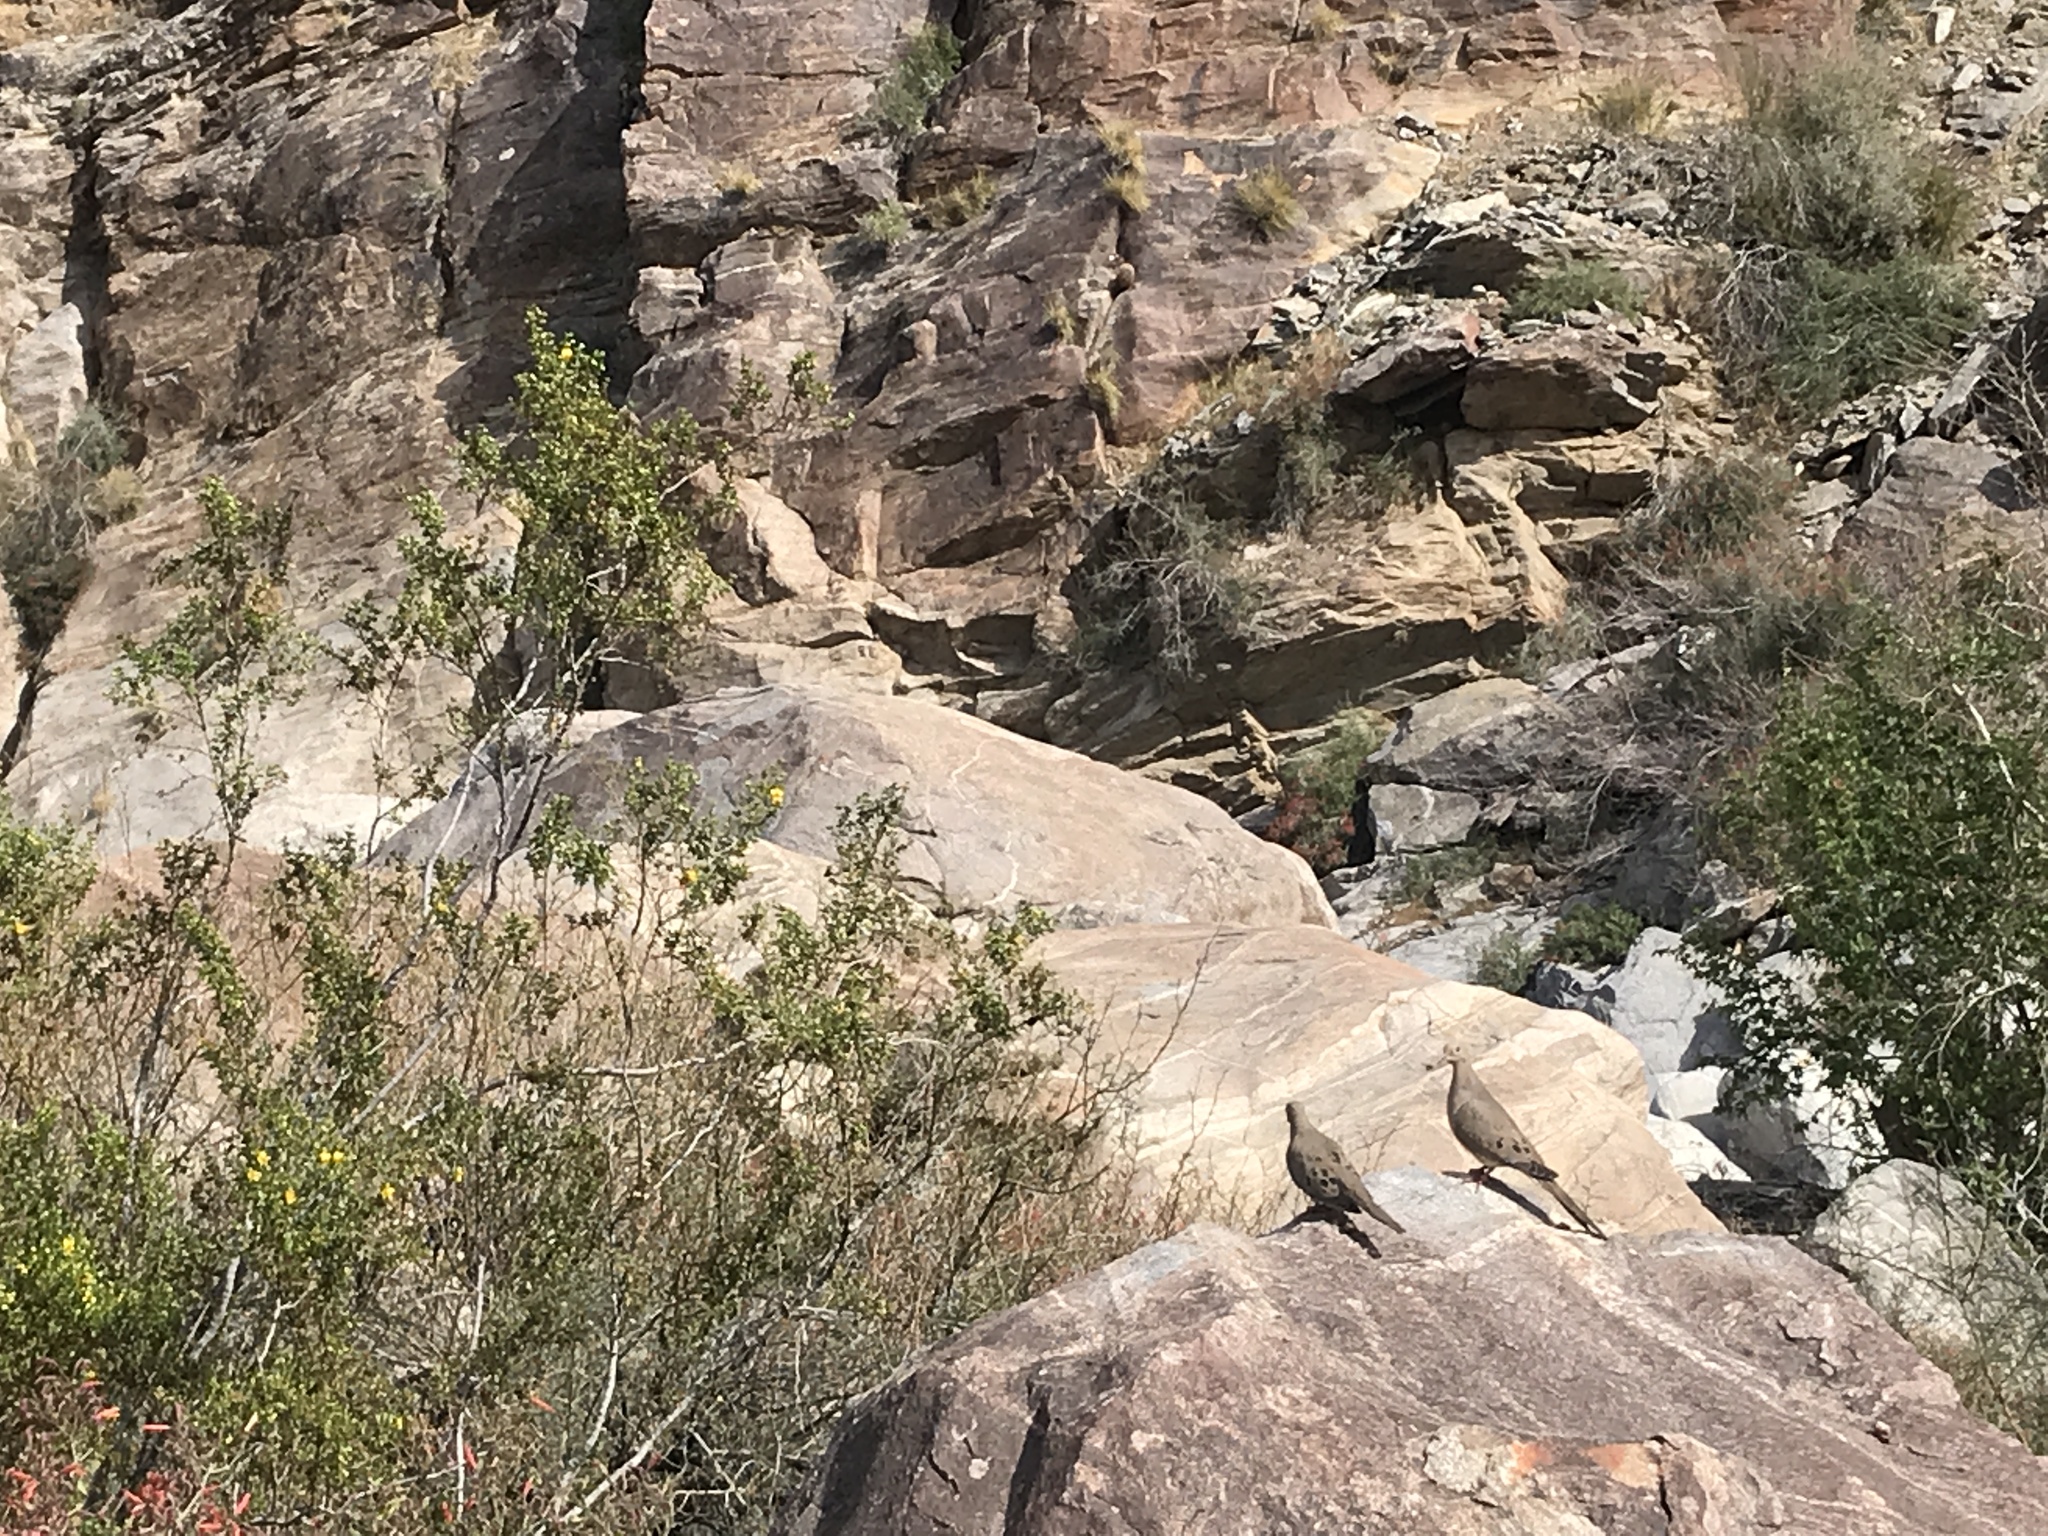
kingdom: Animalia
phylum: Chordata
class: Aves
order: Columbiformes
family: Columbidae
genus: Zenaida
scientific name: Zenaida macroura
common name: Mourning dove
